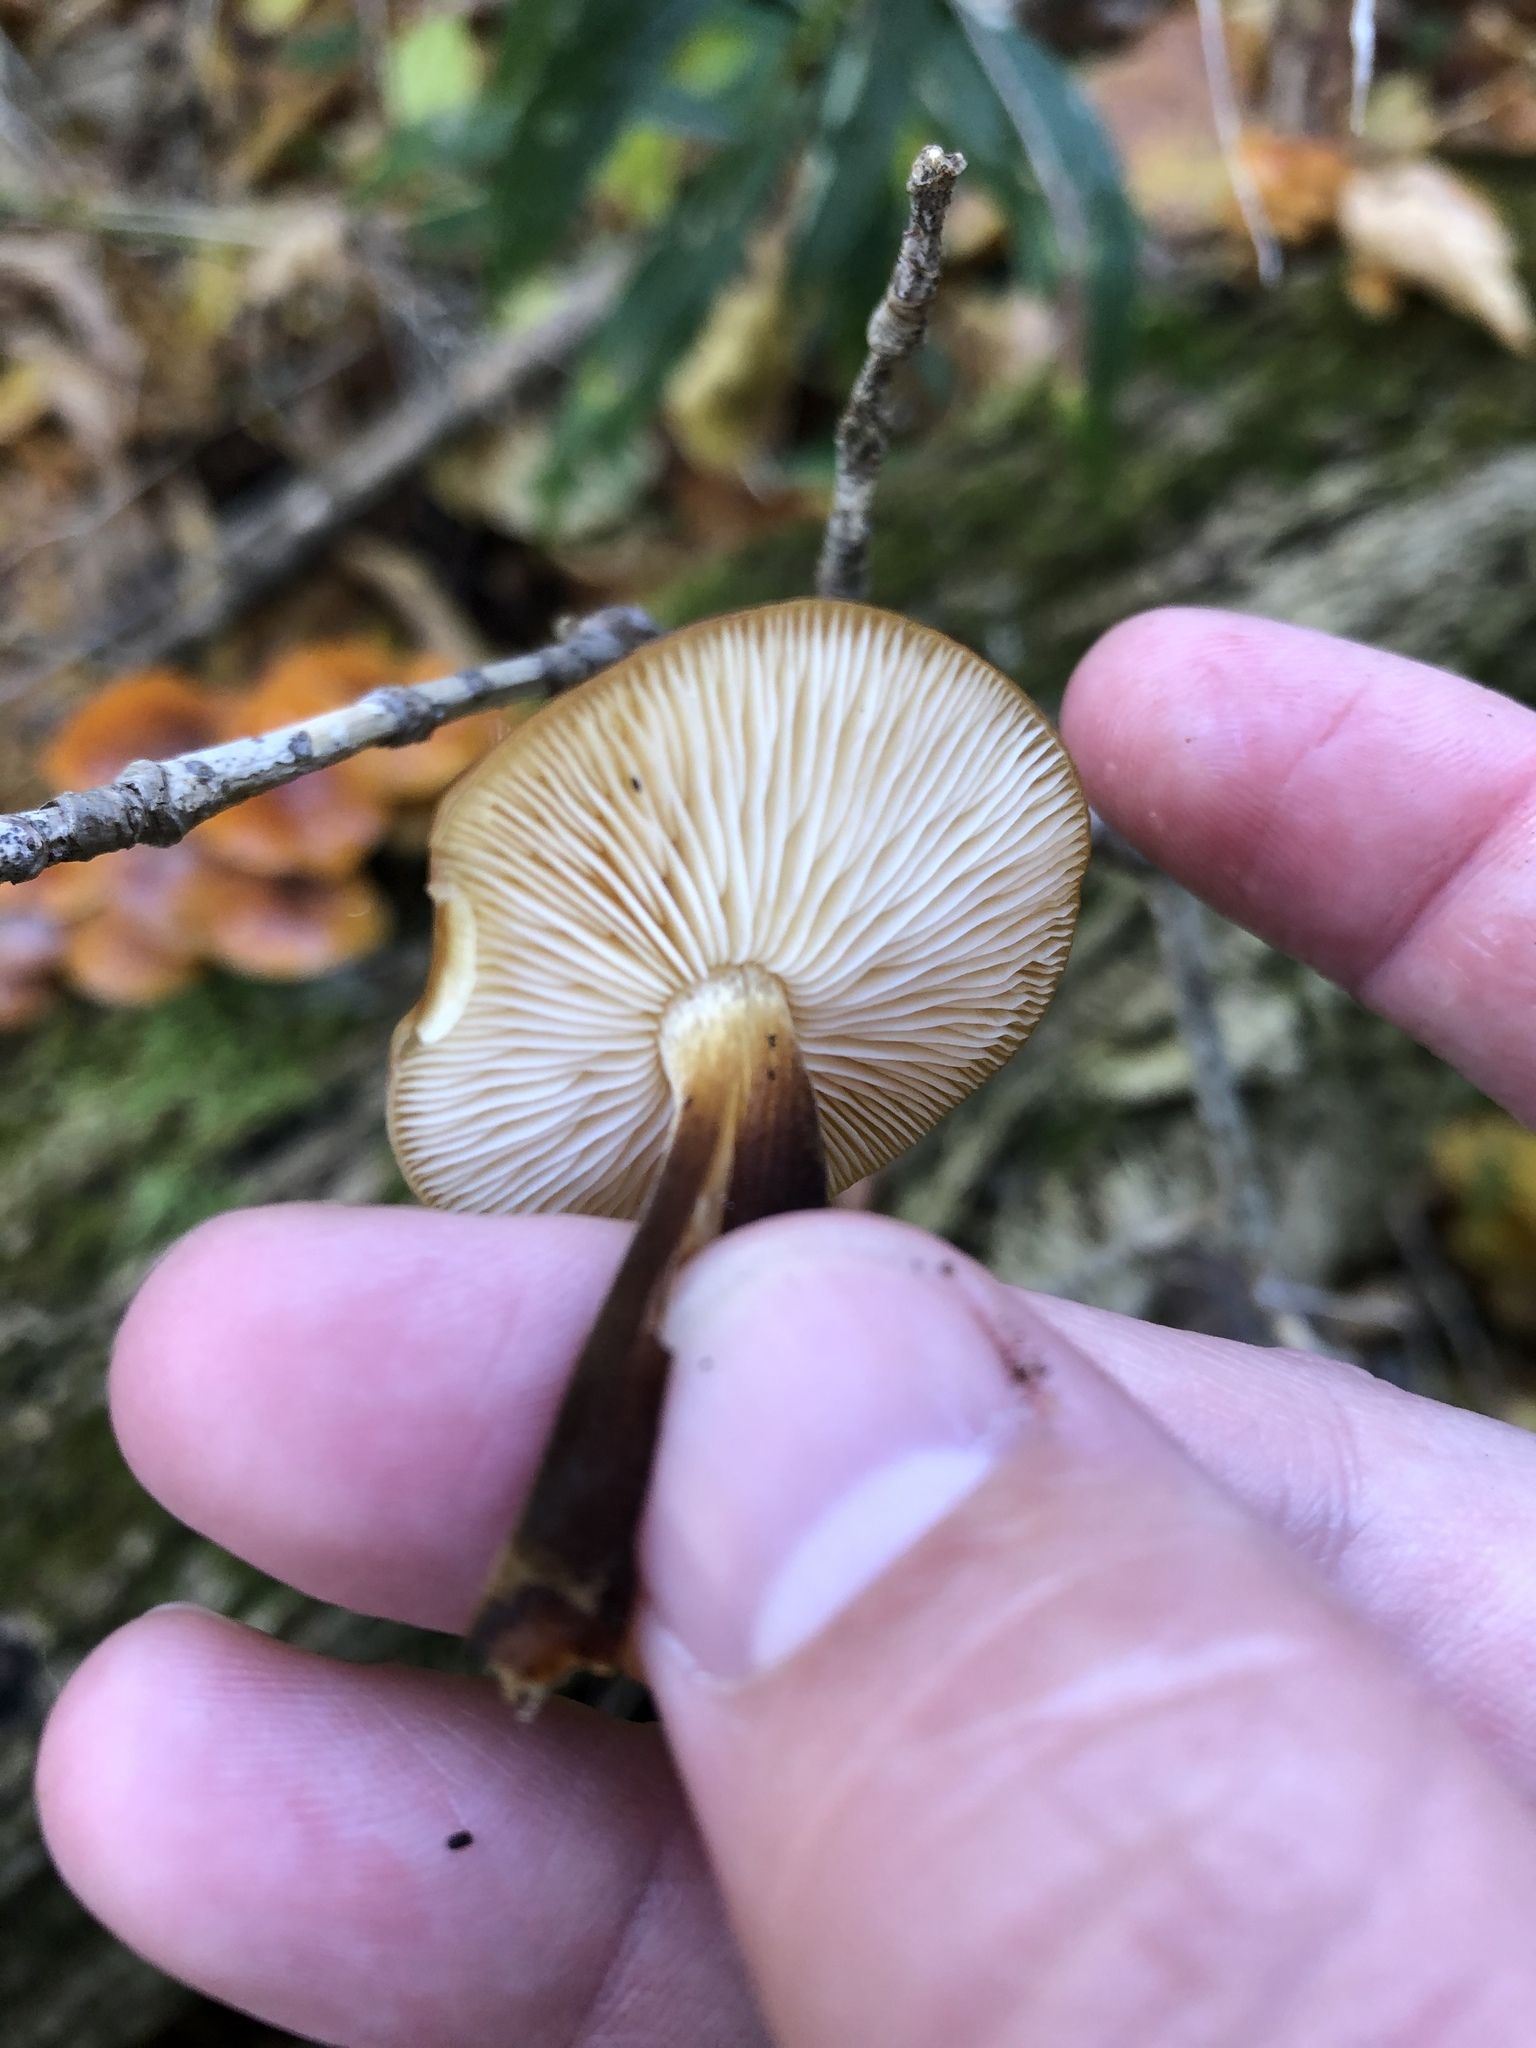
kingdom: Fungi
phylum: Basidiomycota
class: Agaricomycetes
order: Agaricales
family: Physalacriaceae
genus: Flammulina
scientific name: Flammulina velutipes
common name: Velvet shank
